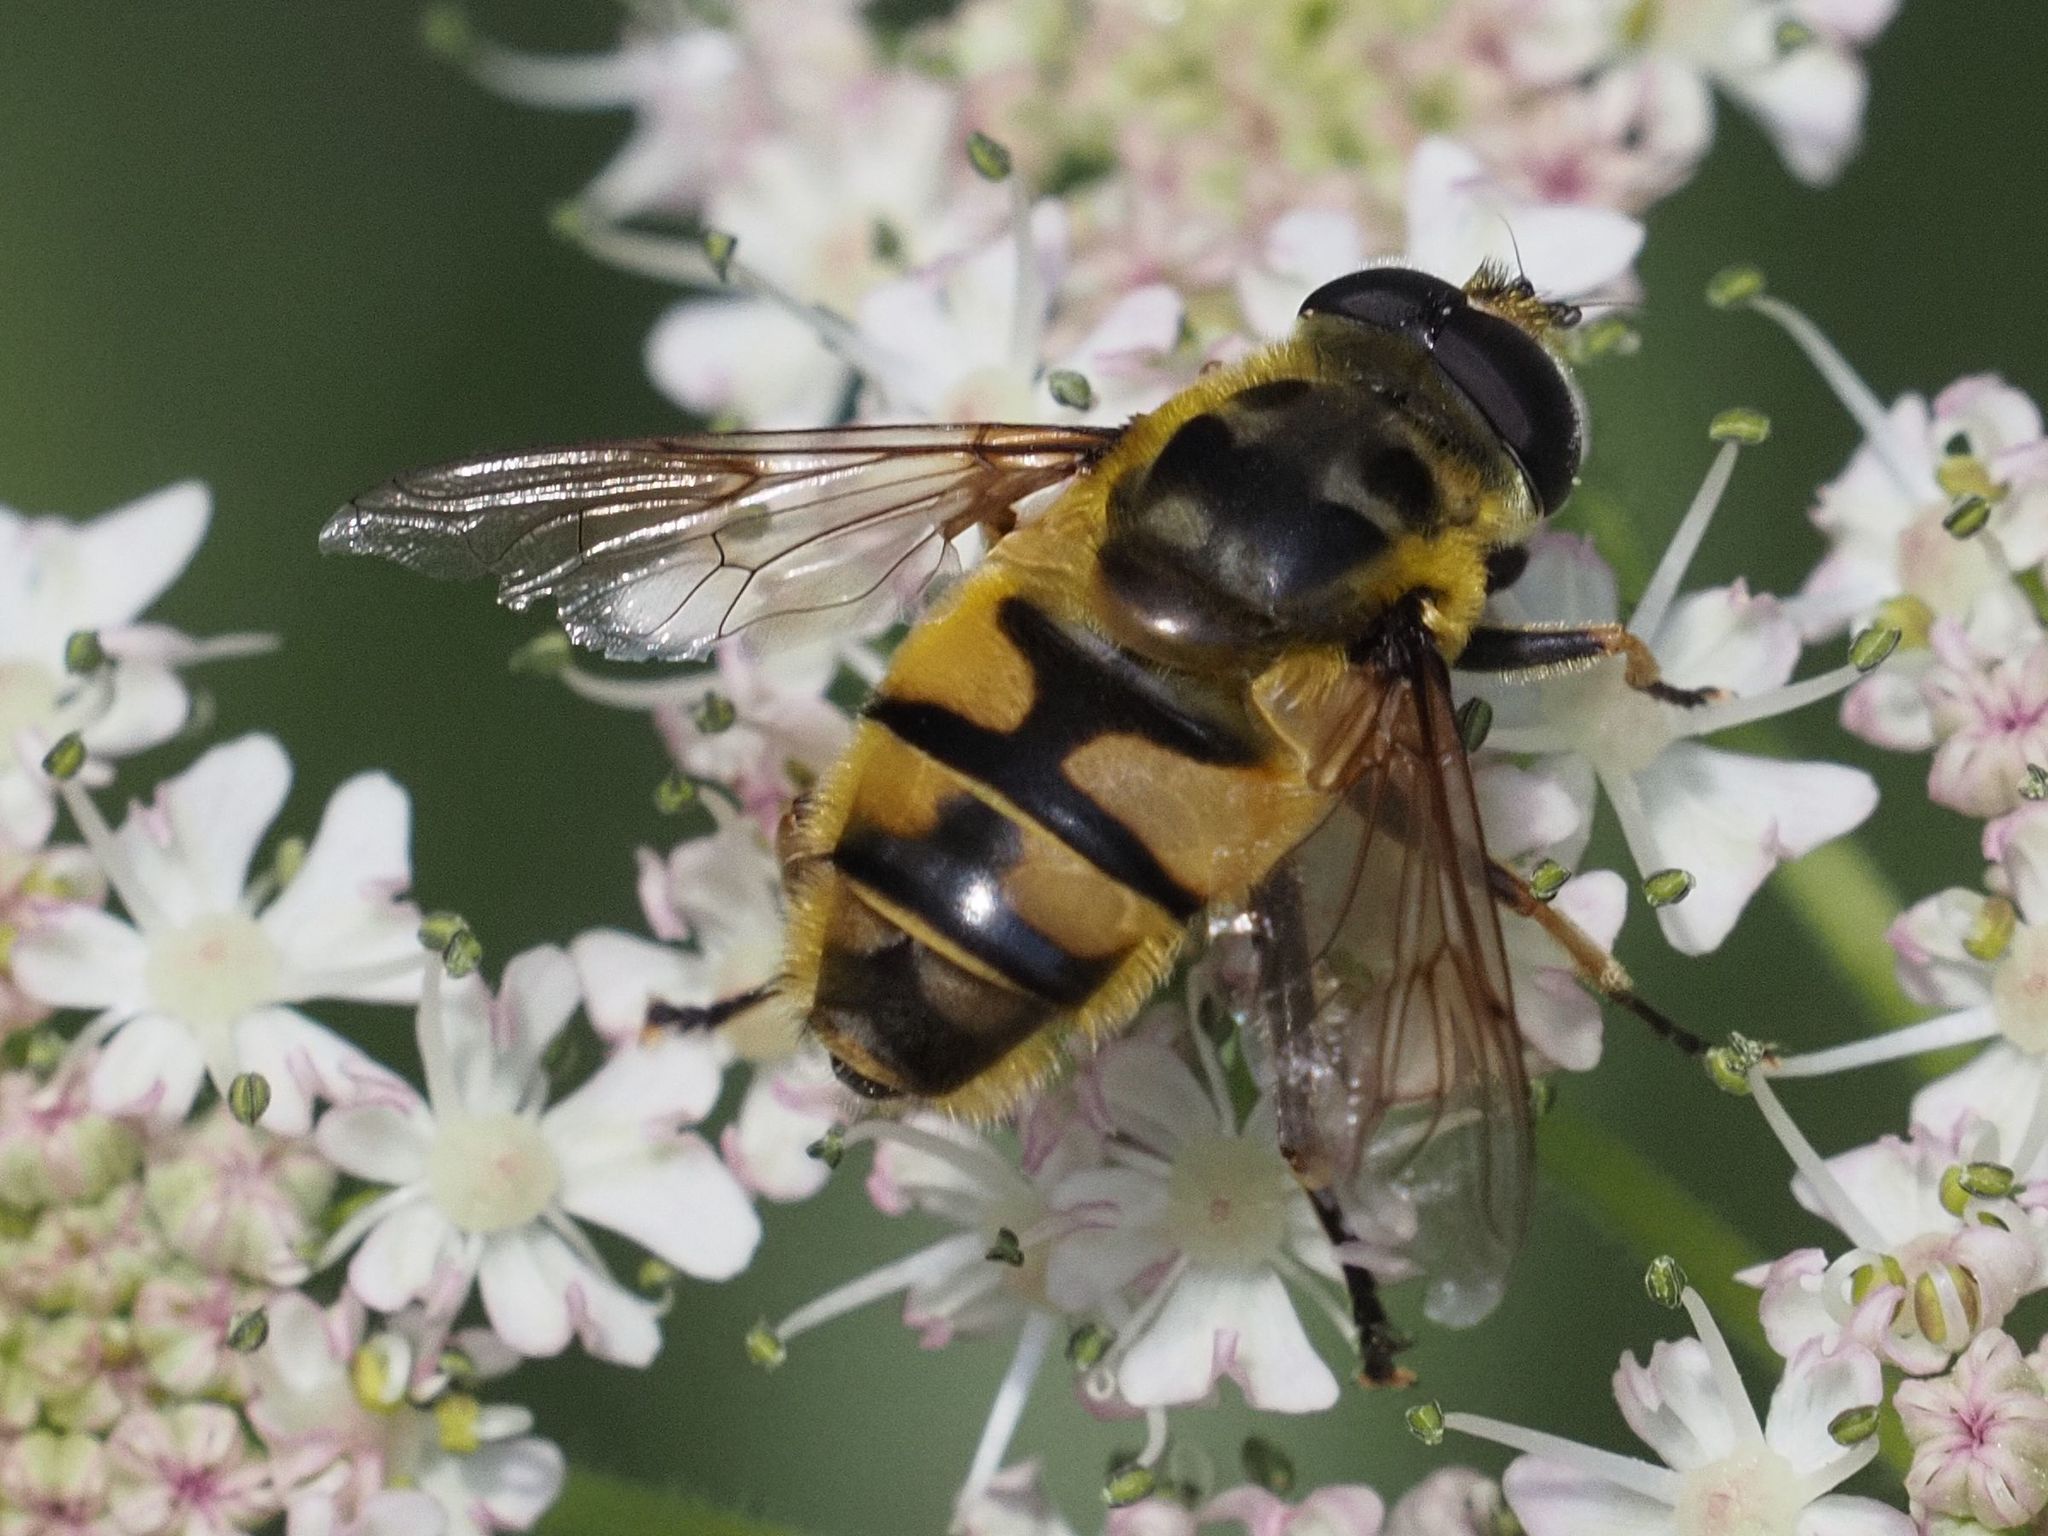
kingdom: Animalia
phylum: Arthropoda
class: Insecta
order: Diptera
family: Syrphidae
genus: Myathropa
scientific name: Myathropa florea
